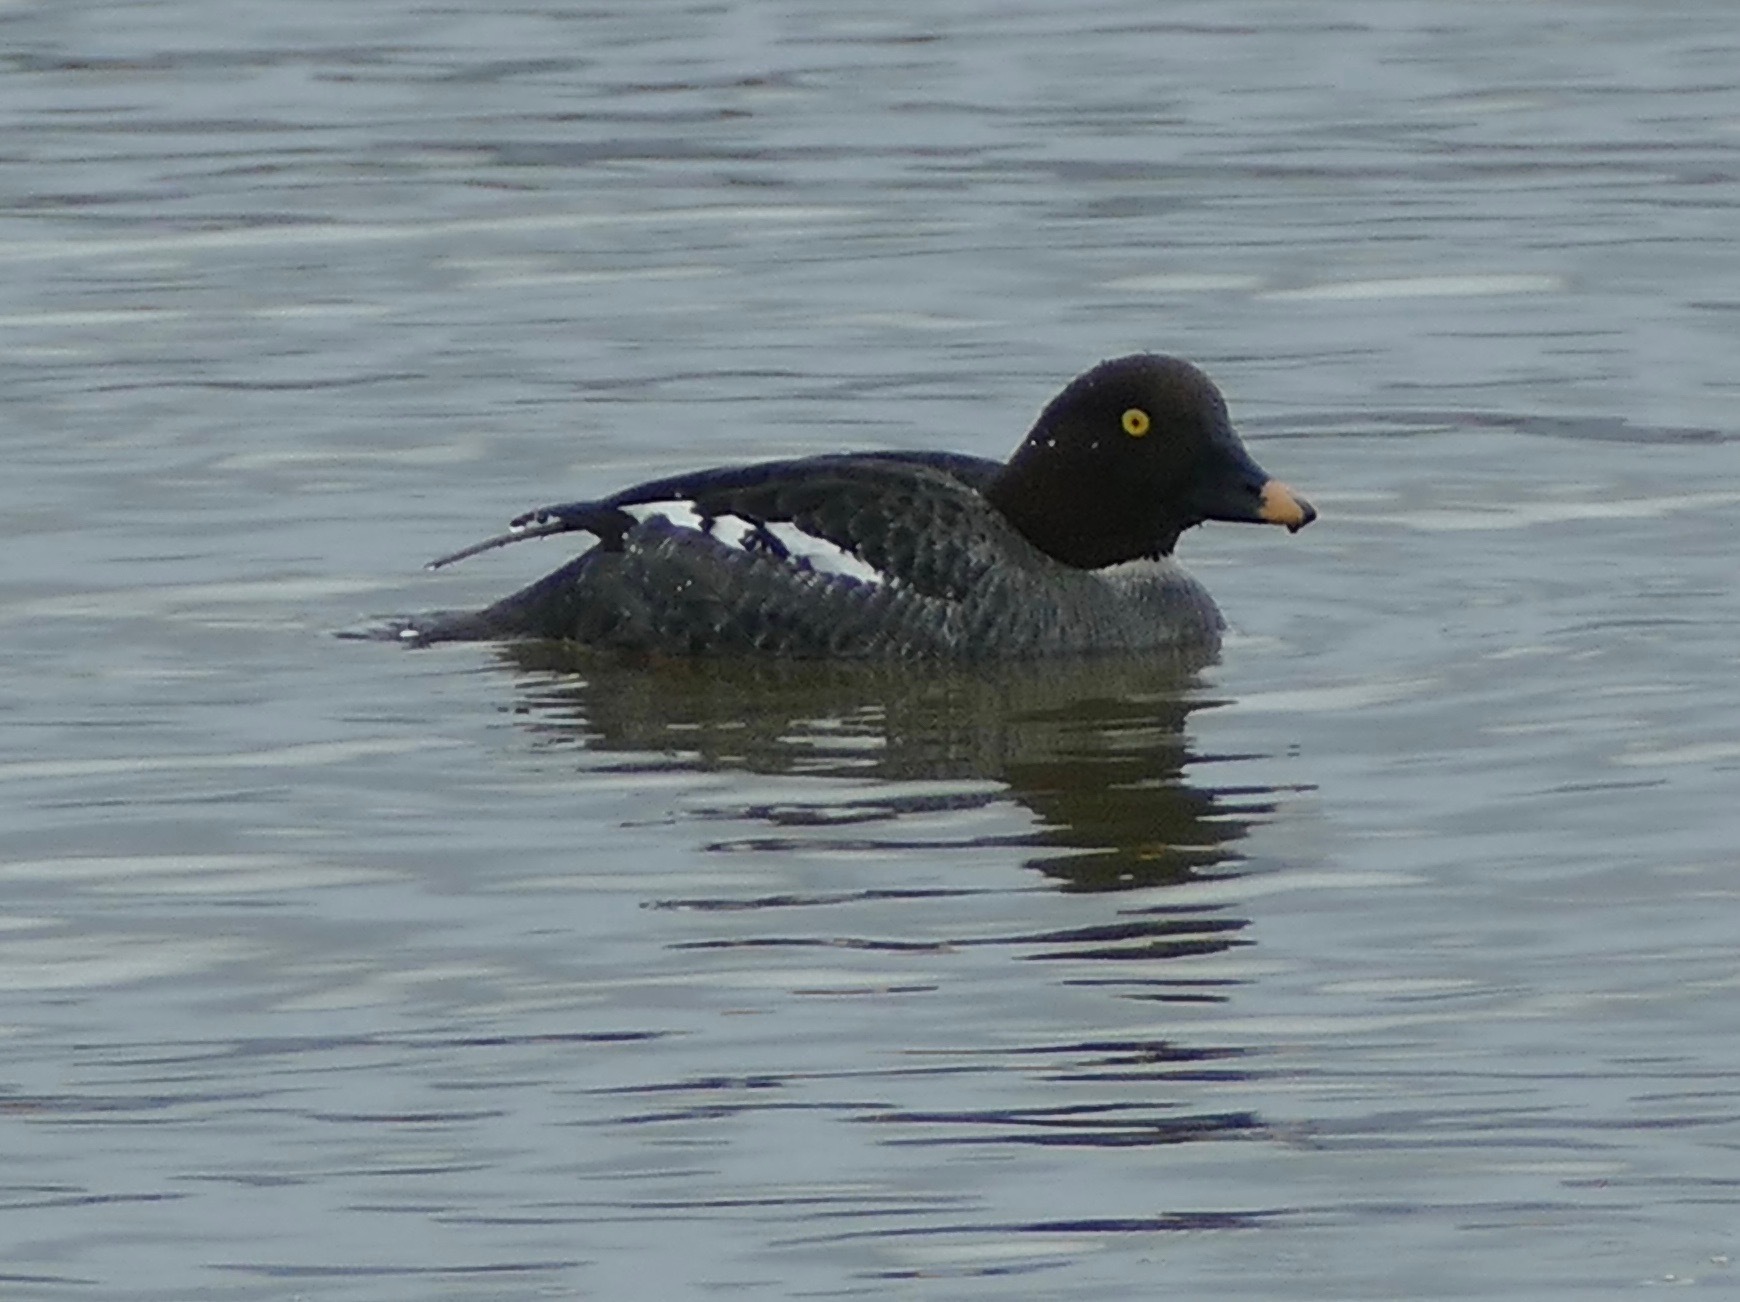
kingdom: Animalia
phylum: Chordata
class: Aves
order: Anseriformes
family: Anatidae
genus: Bucephala
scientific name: Bucephala clangula
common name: Common goldeneye
